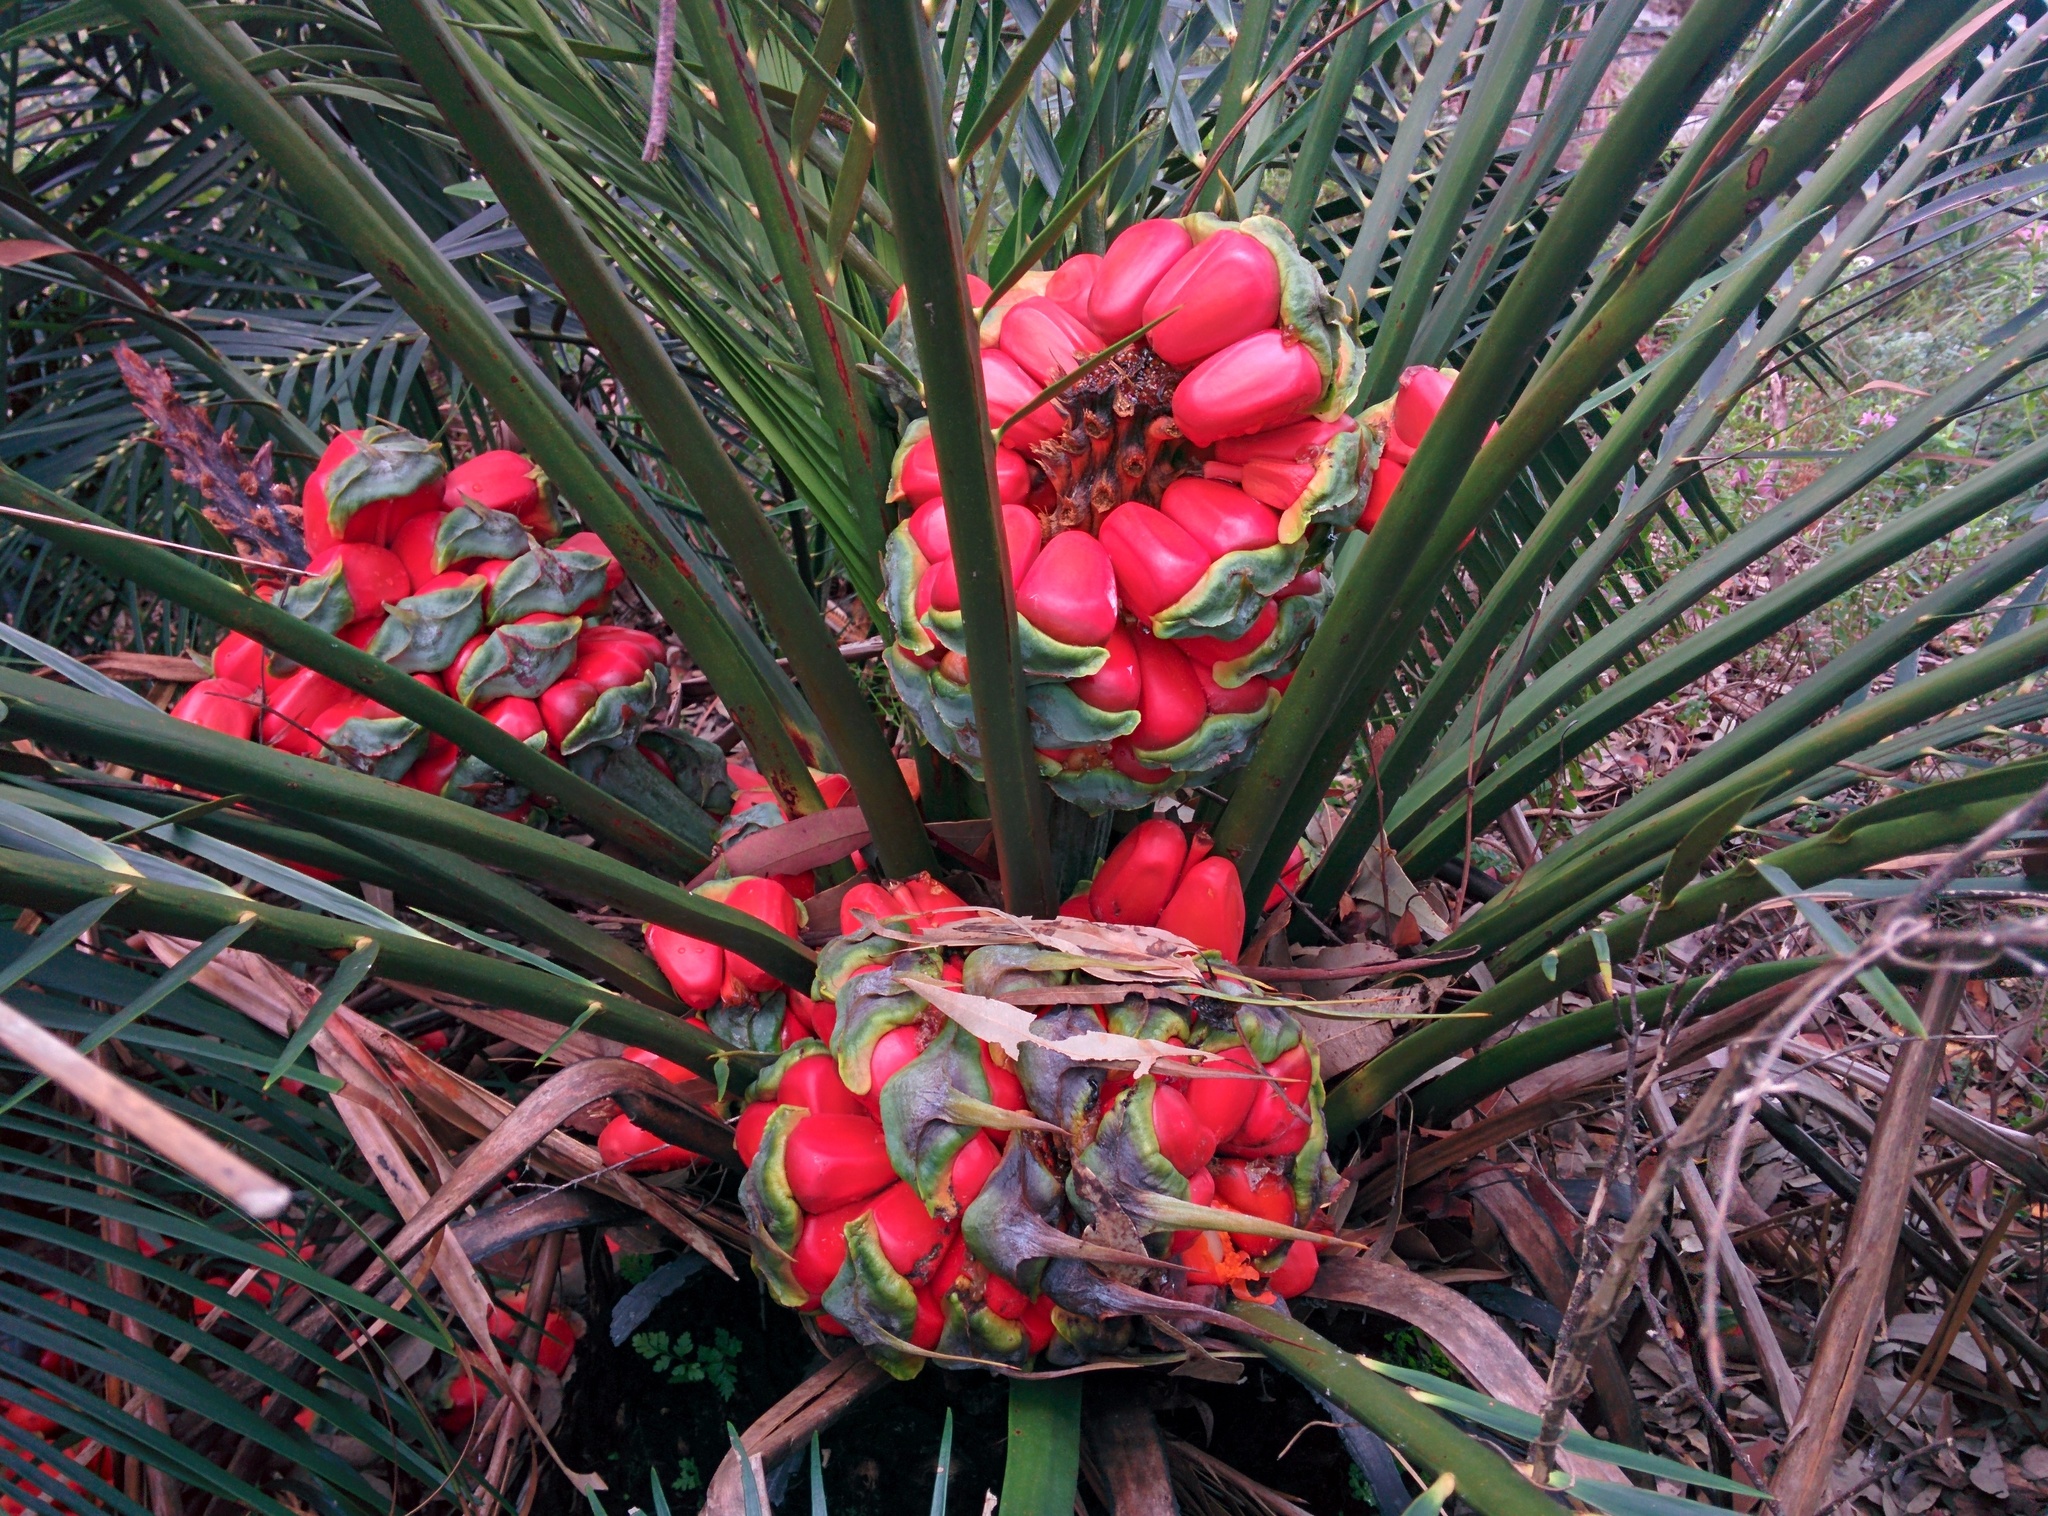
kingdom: Plantae
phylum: Tracheophyta
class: Cycadopsida
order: Cycadales
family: Zamiaceae
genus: Macrozamia
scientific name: Macrozamia communis
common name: Burrawong
